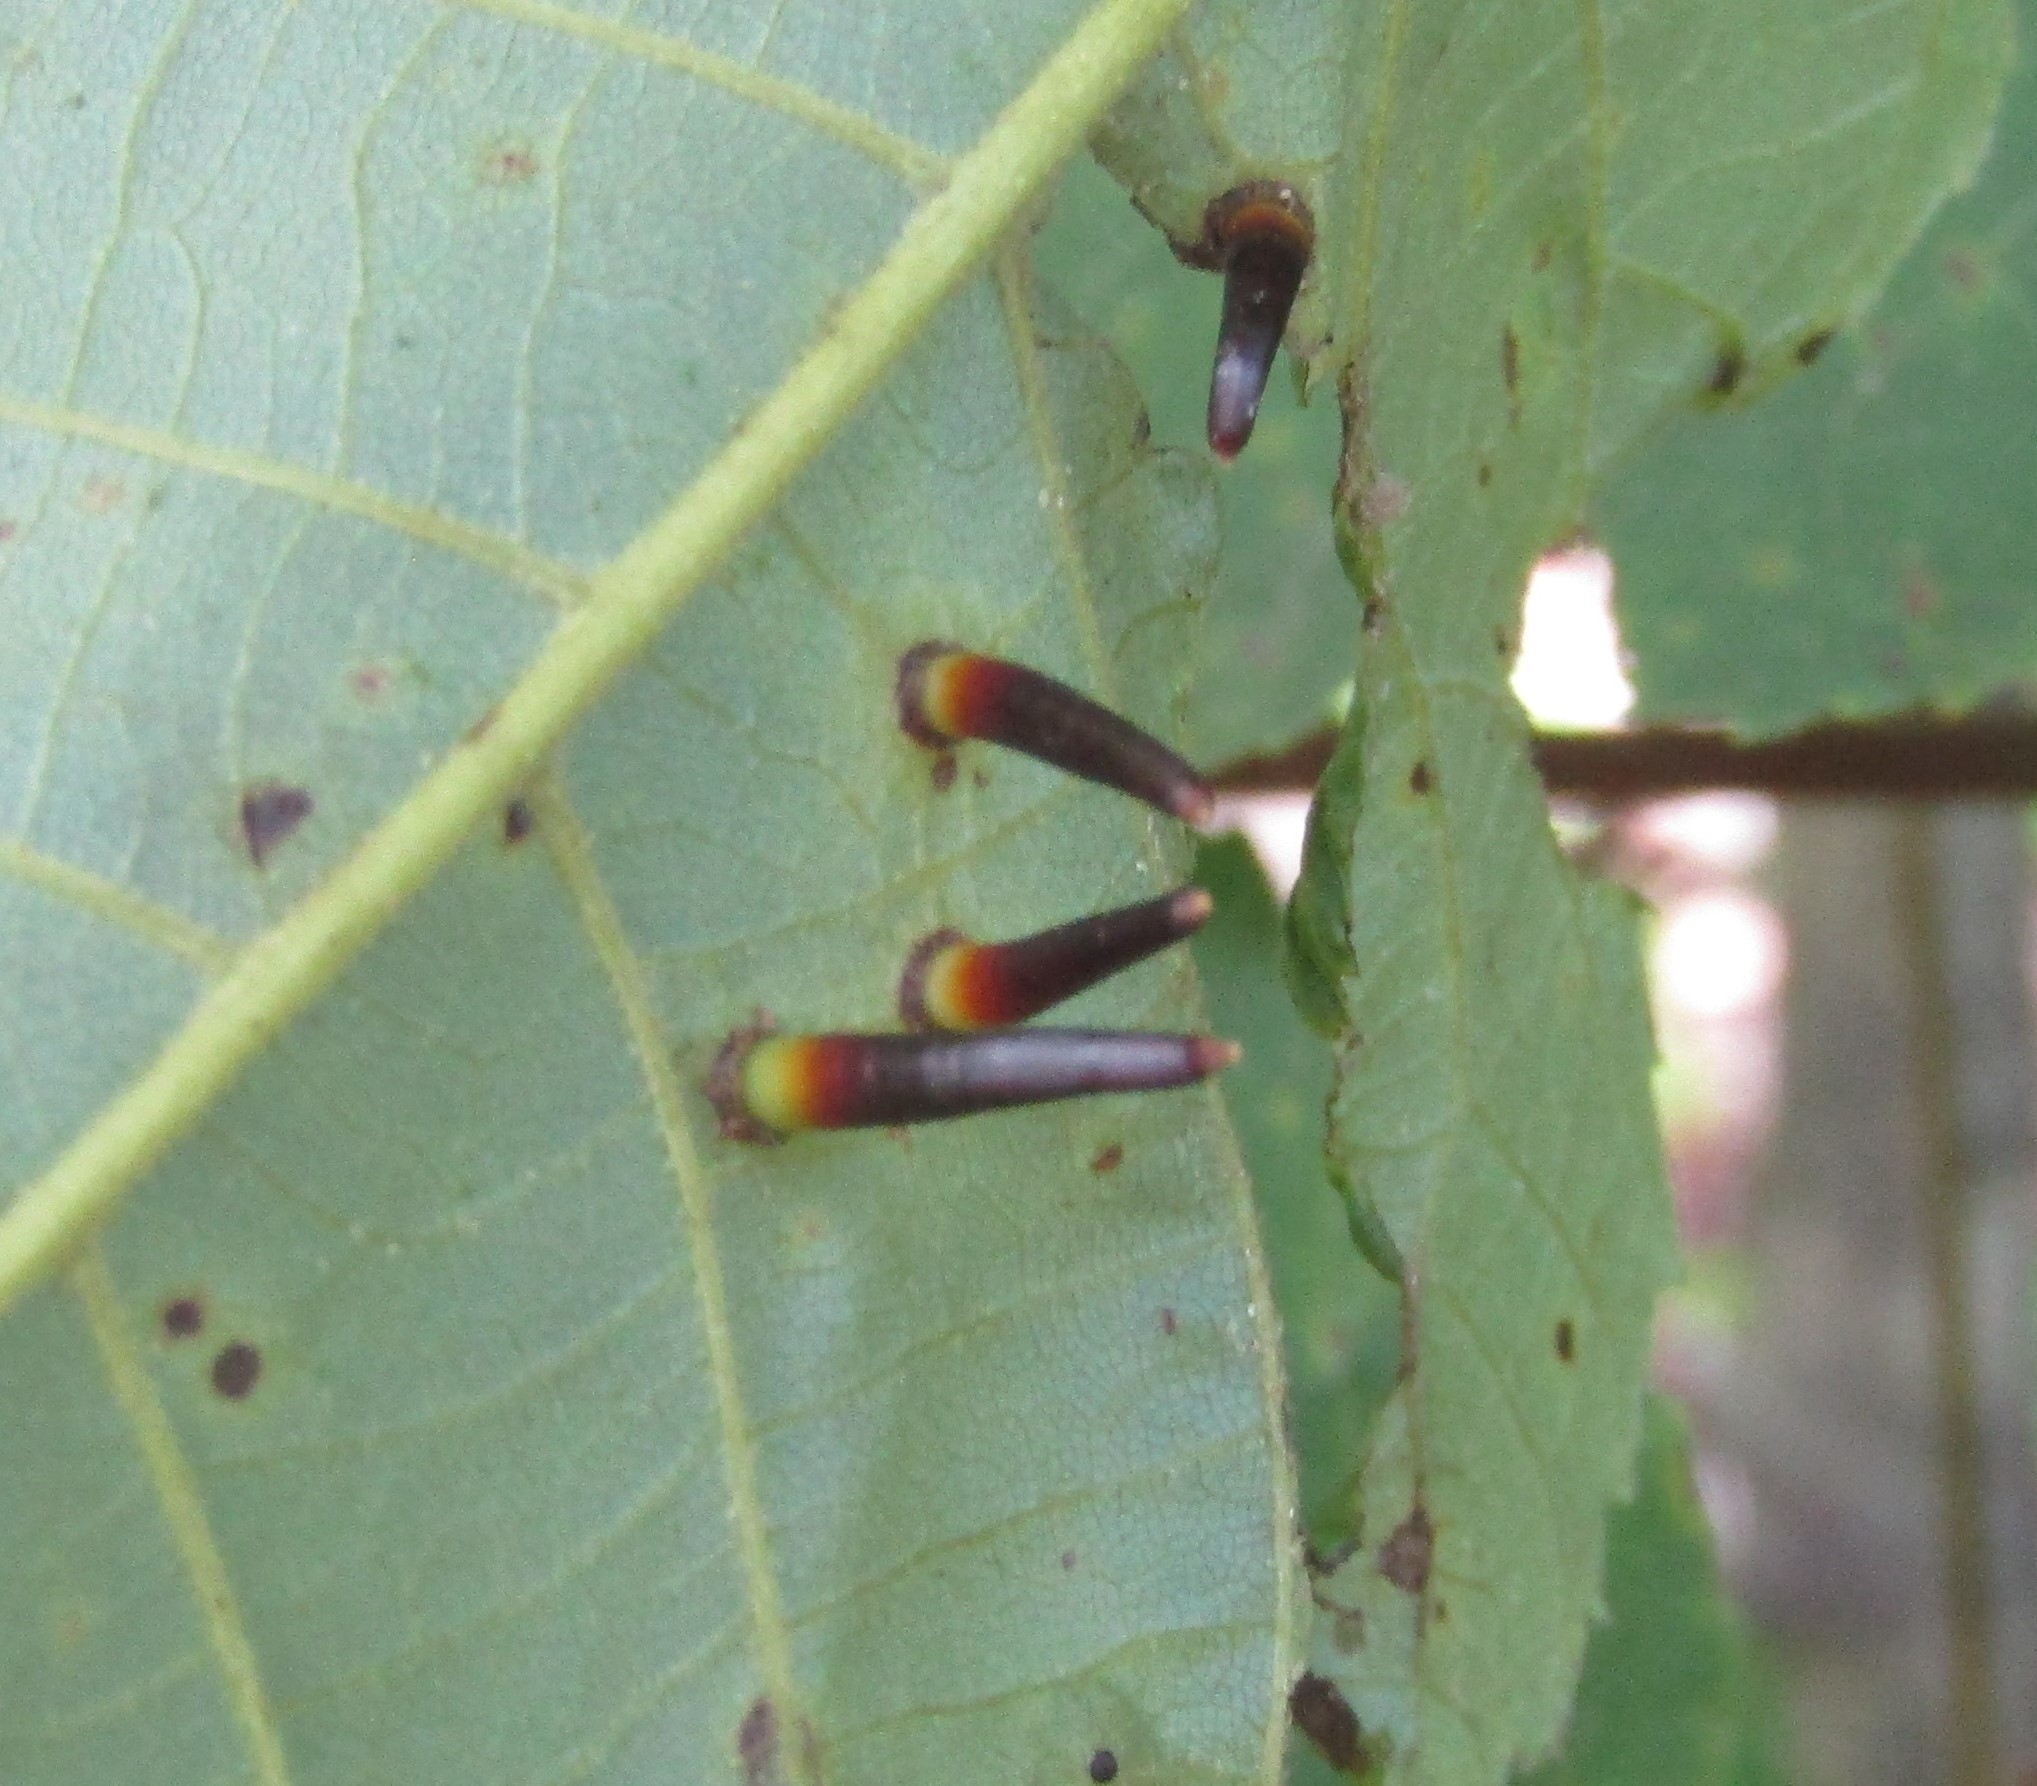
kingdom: Animalia
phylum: Arthropoda
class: Insecta
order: Diptera
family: Cecidomyiidae
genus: Caryomyia
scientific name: Caryomyia subulata
